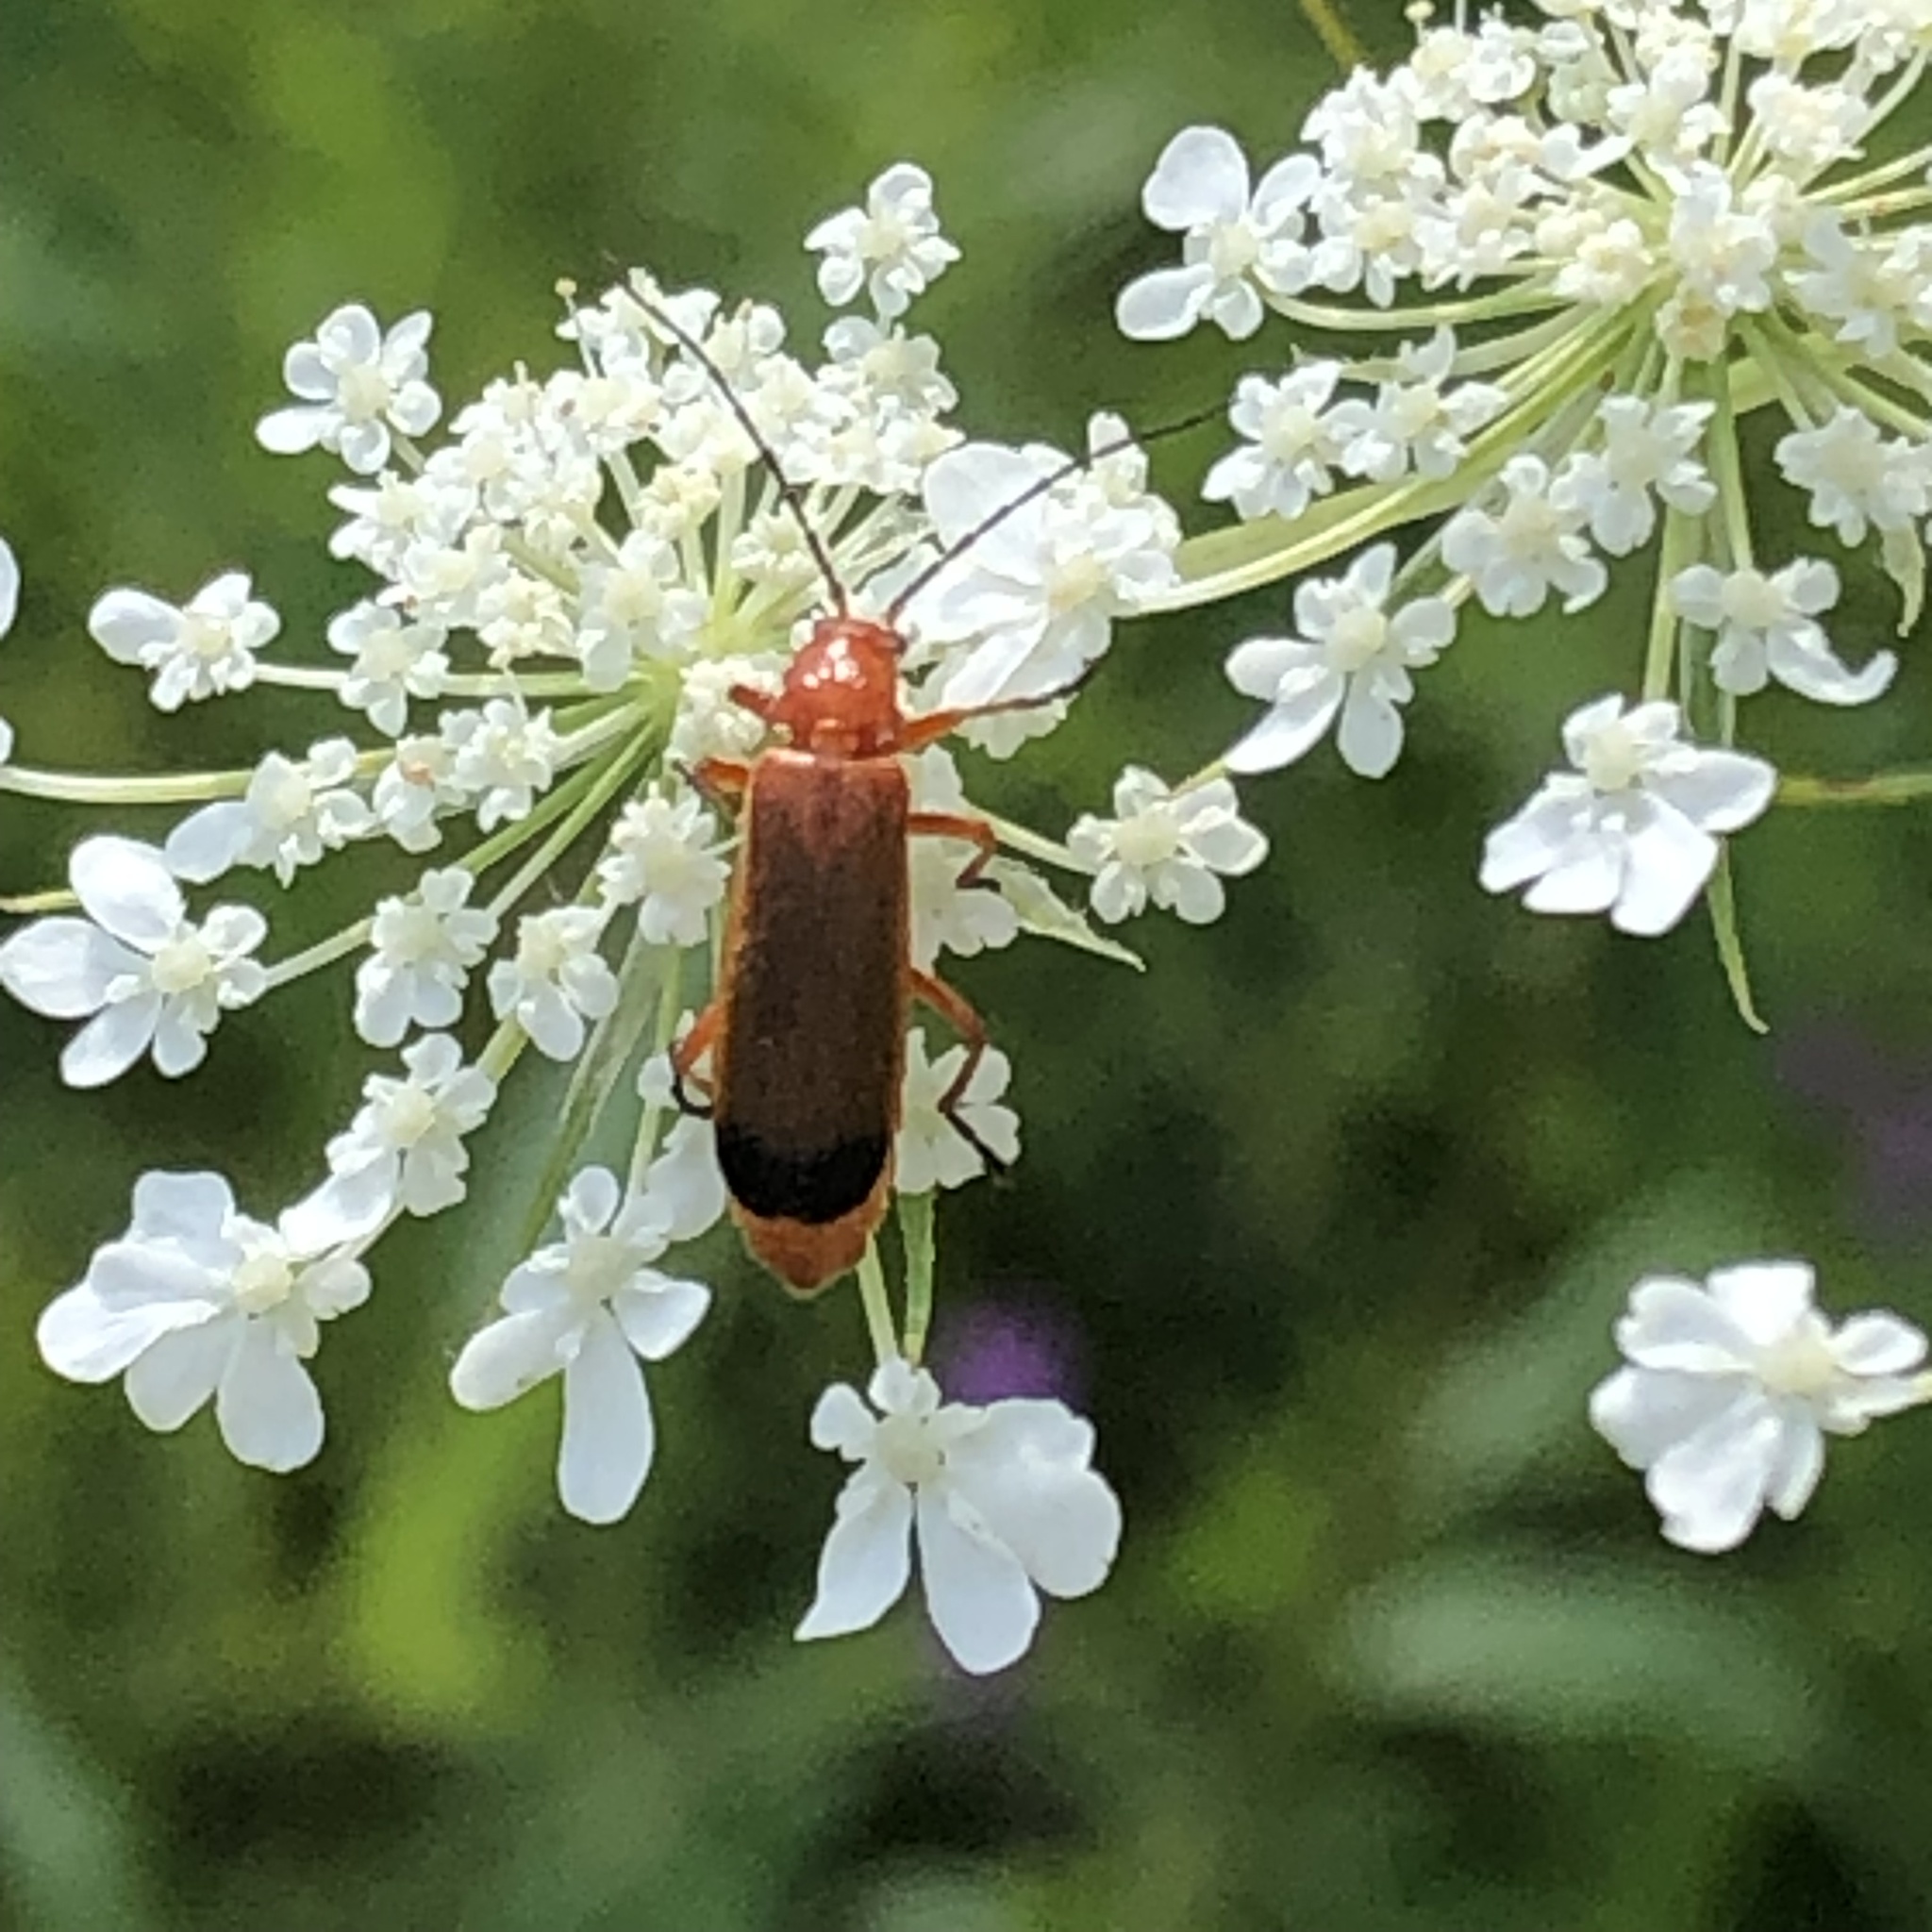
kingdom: Animalia
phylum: Arthropoda
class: Insecta
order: Coleoptera
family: Cantharidae
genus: Rhagonycha
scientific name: Rhagonycha fulva
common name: Common red soldier beetle
